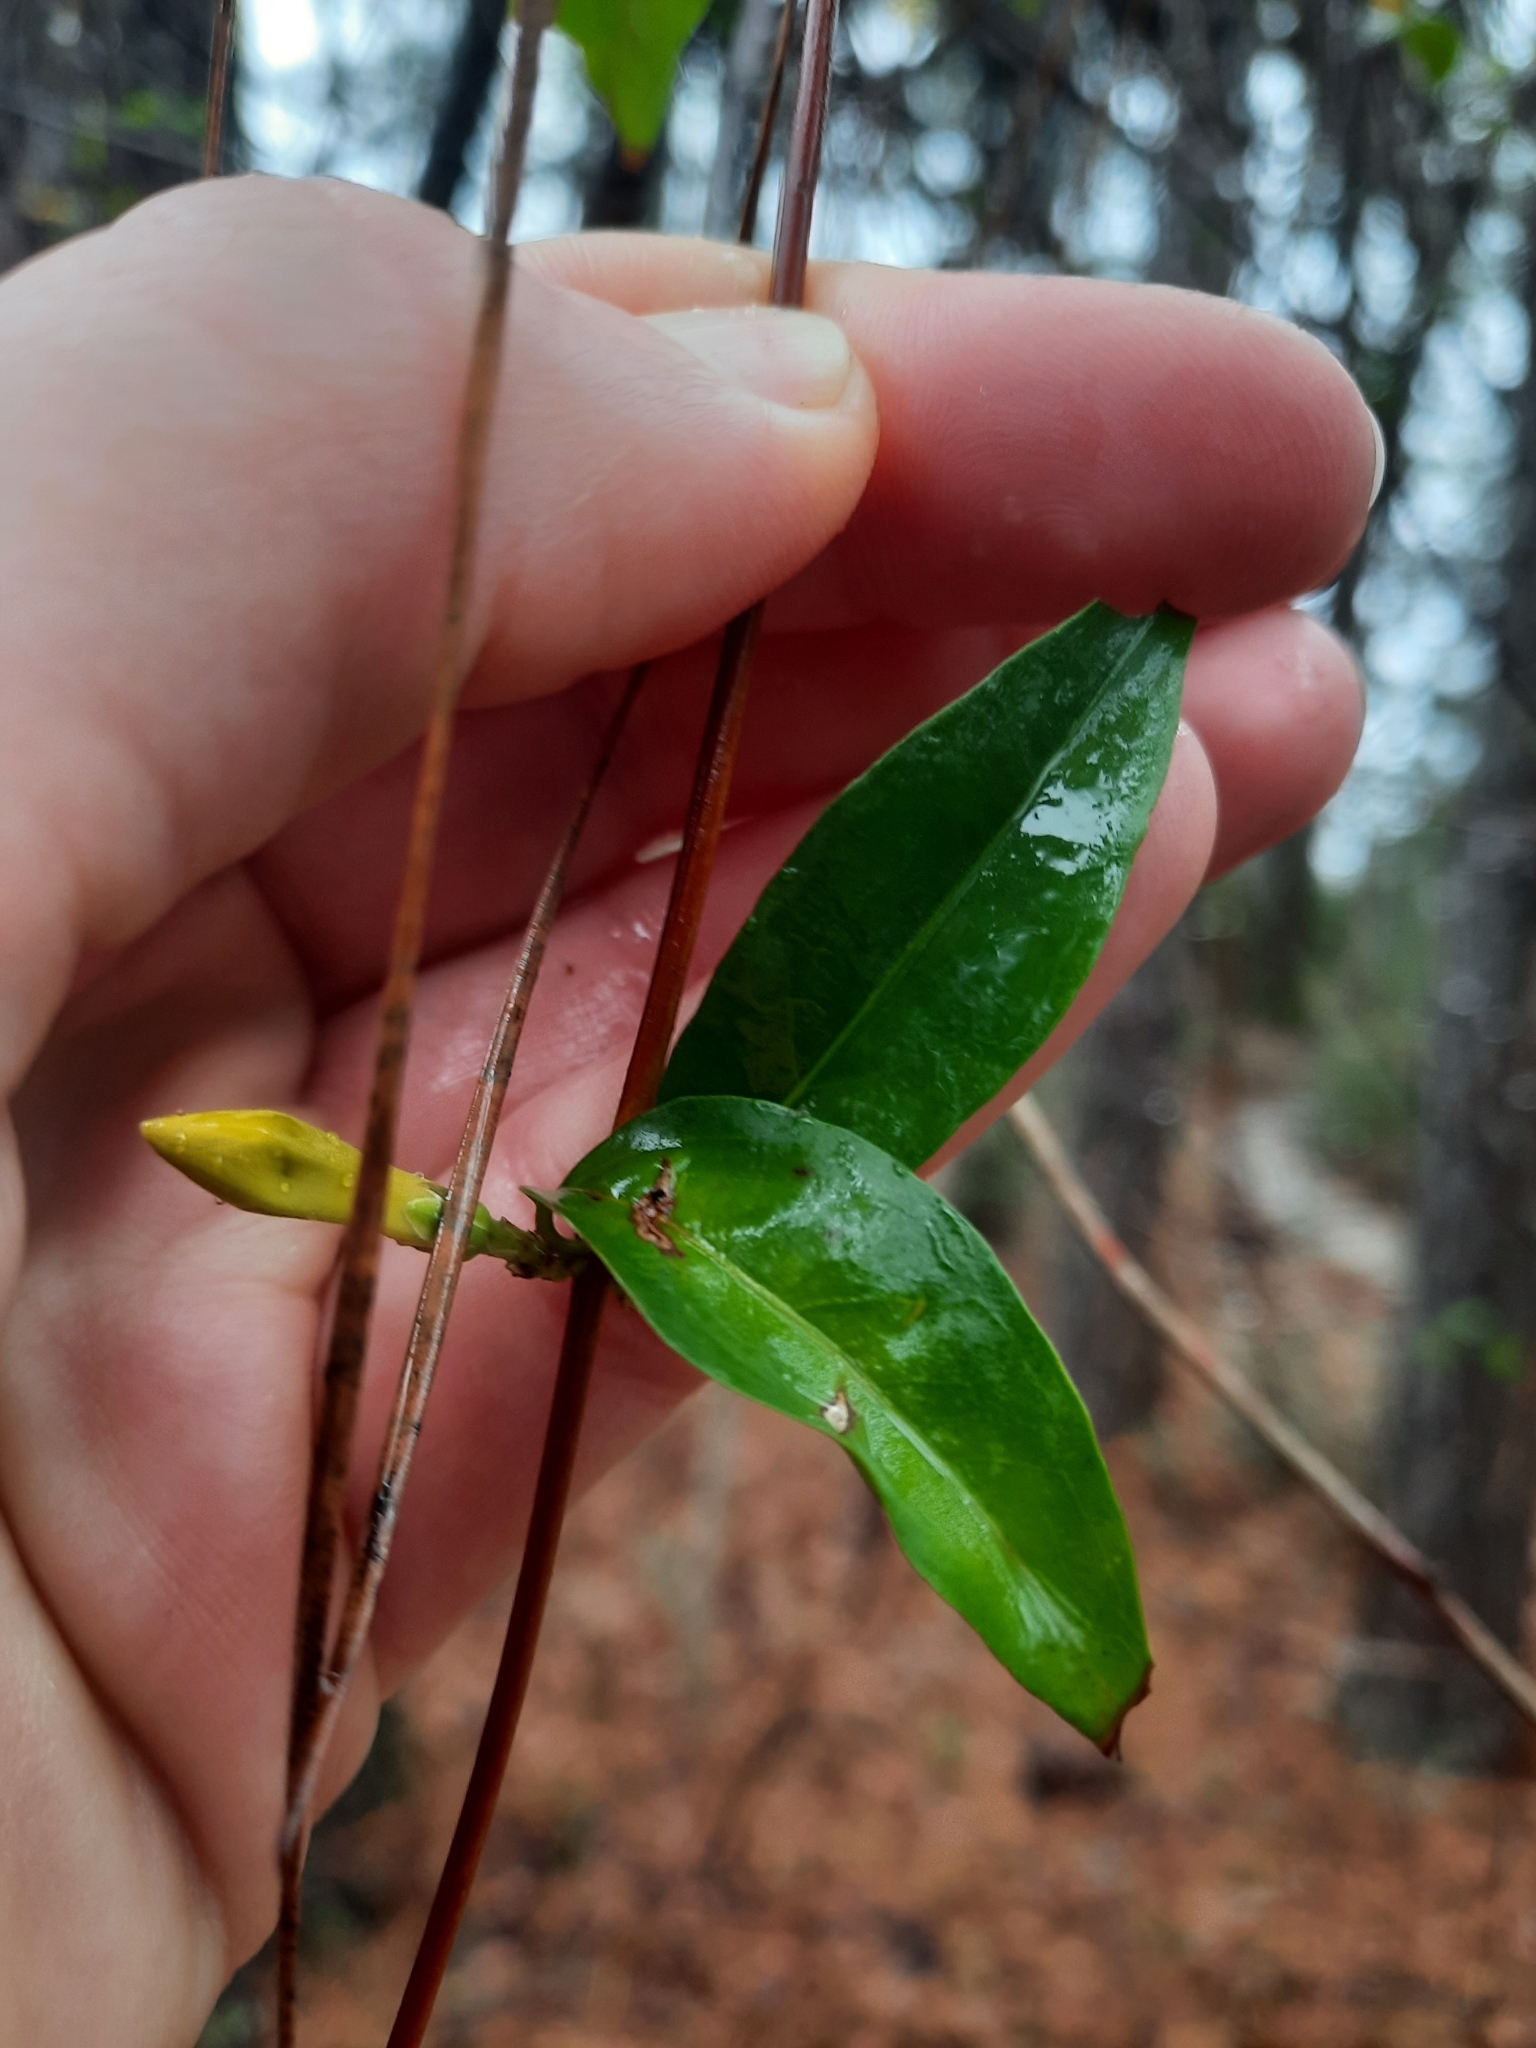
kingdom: Plantae
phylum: Tracheophyta
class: Magnoliopsida
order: Gentianales
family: Gelsemiaceae
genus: Gelsemium
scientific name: Gelsemium sempervirens
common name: Carolina-jasmine
